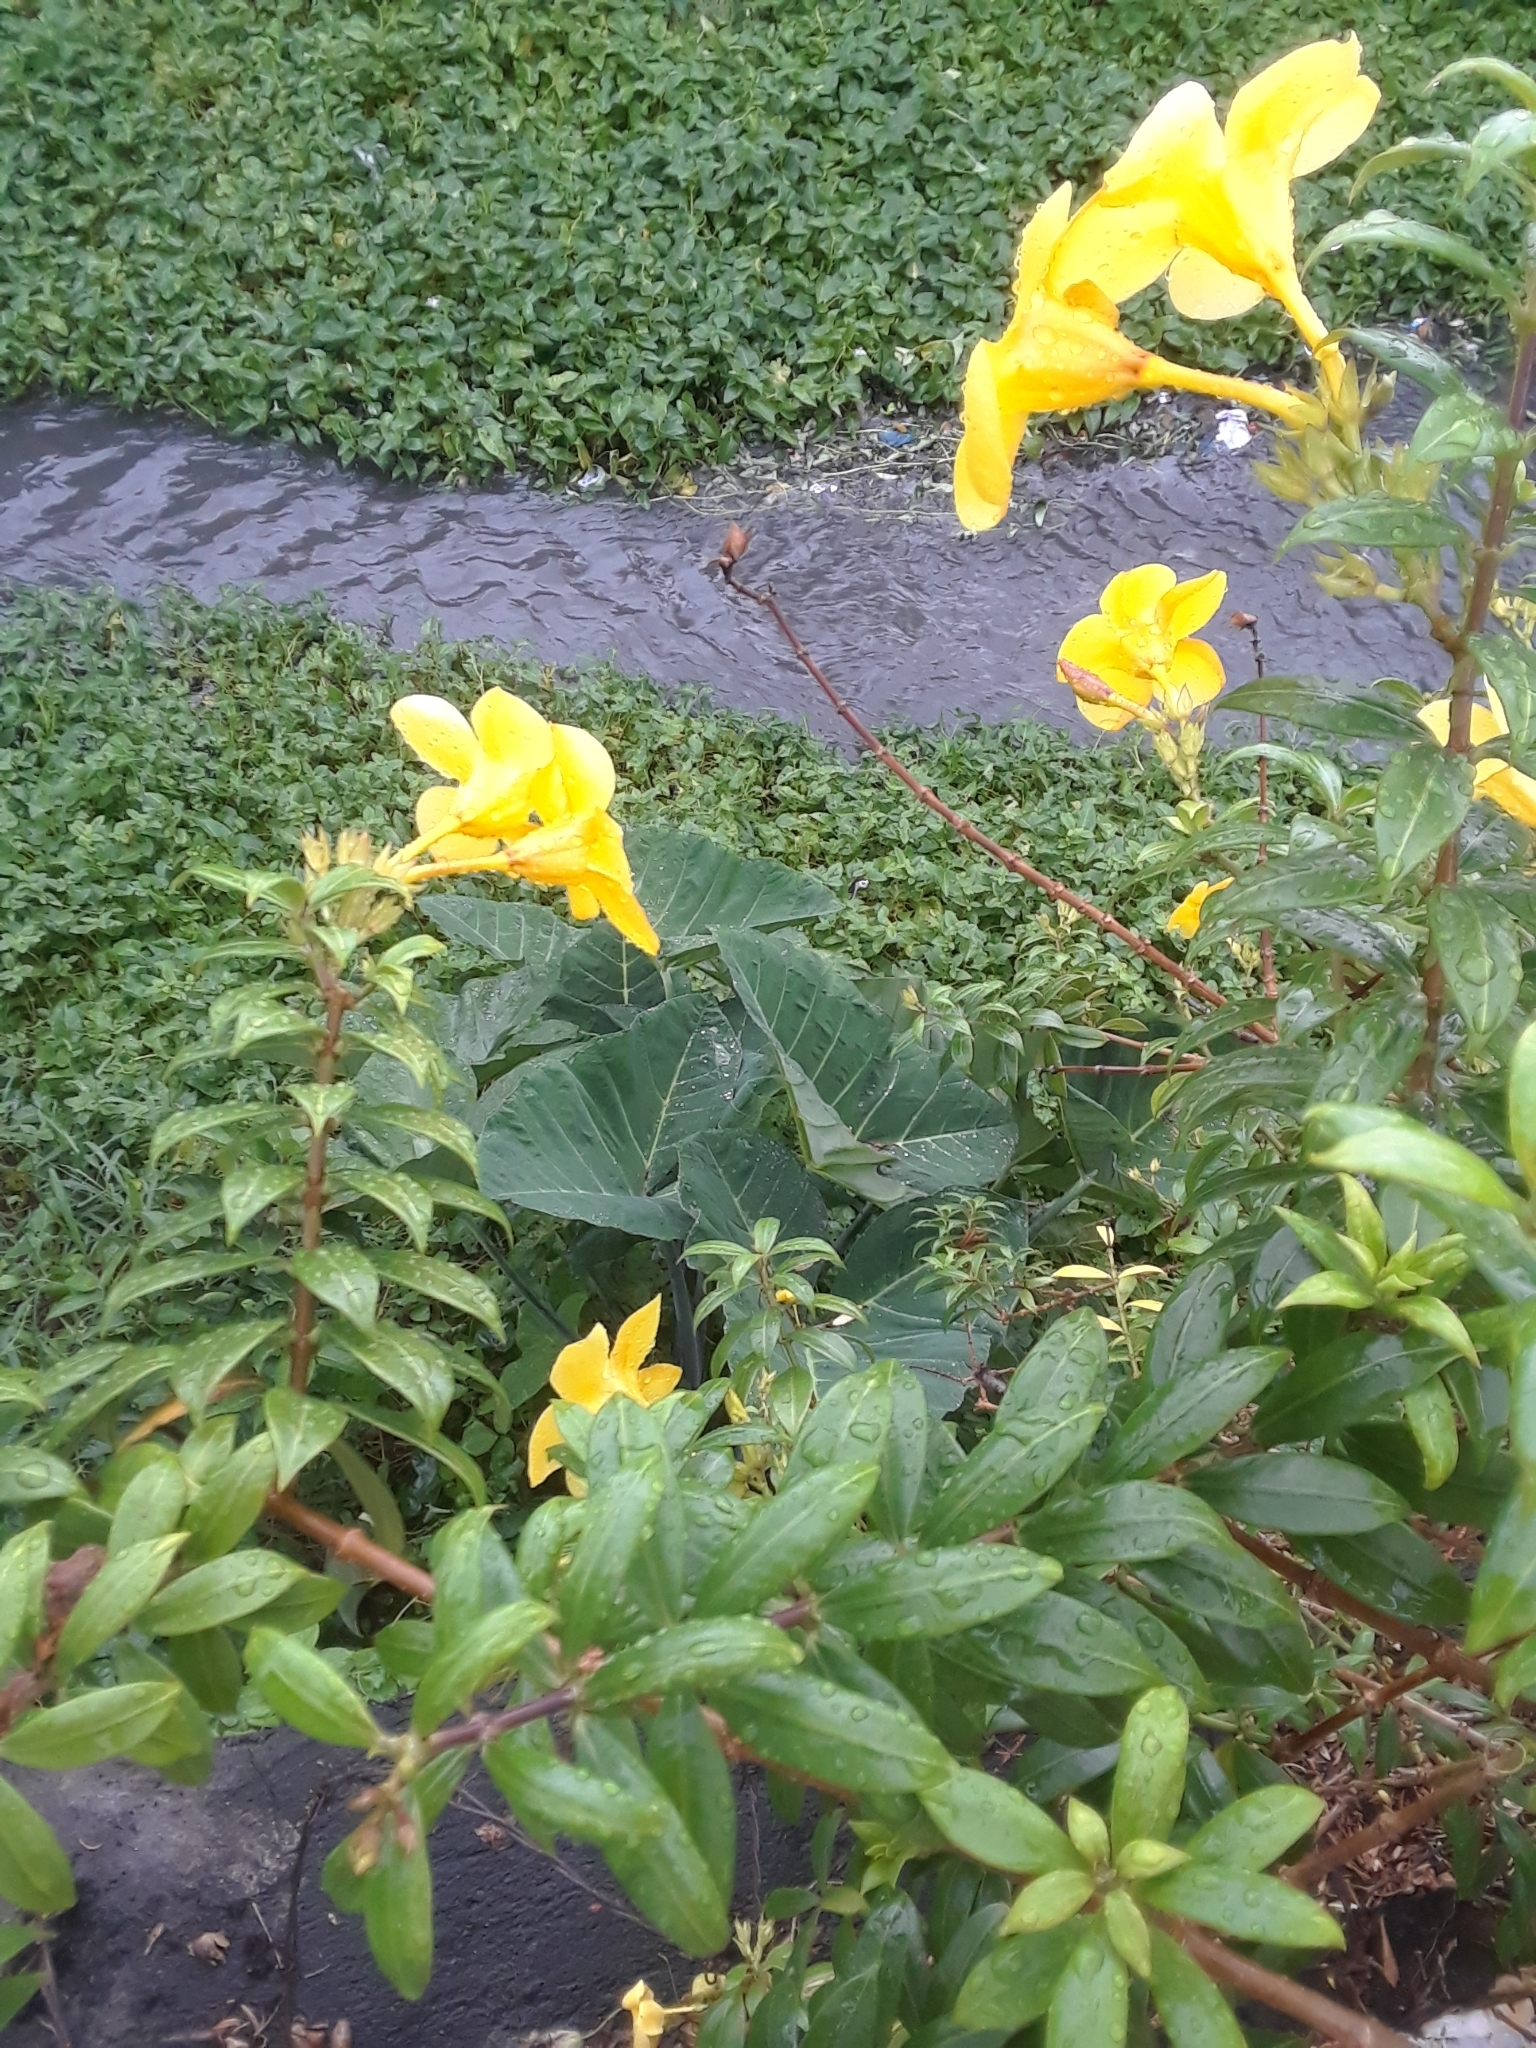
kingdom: Animalia
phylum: Chordata
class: Aves
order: Gruiformes
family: Rallidae
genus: Amaurornis
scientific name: Amaurornis phoenicurus
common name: White-breasted waterhen
